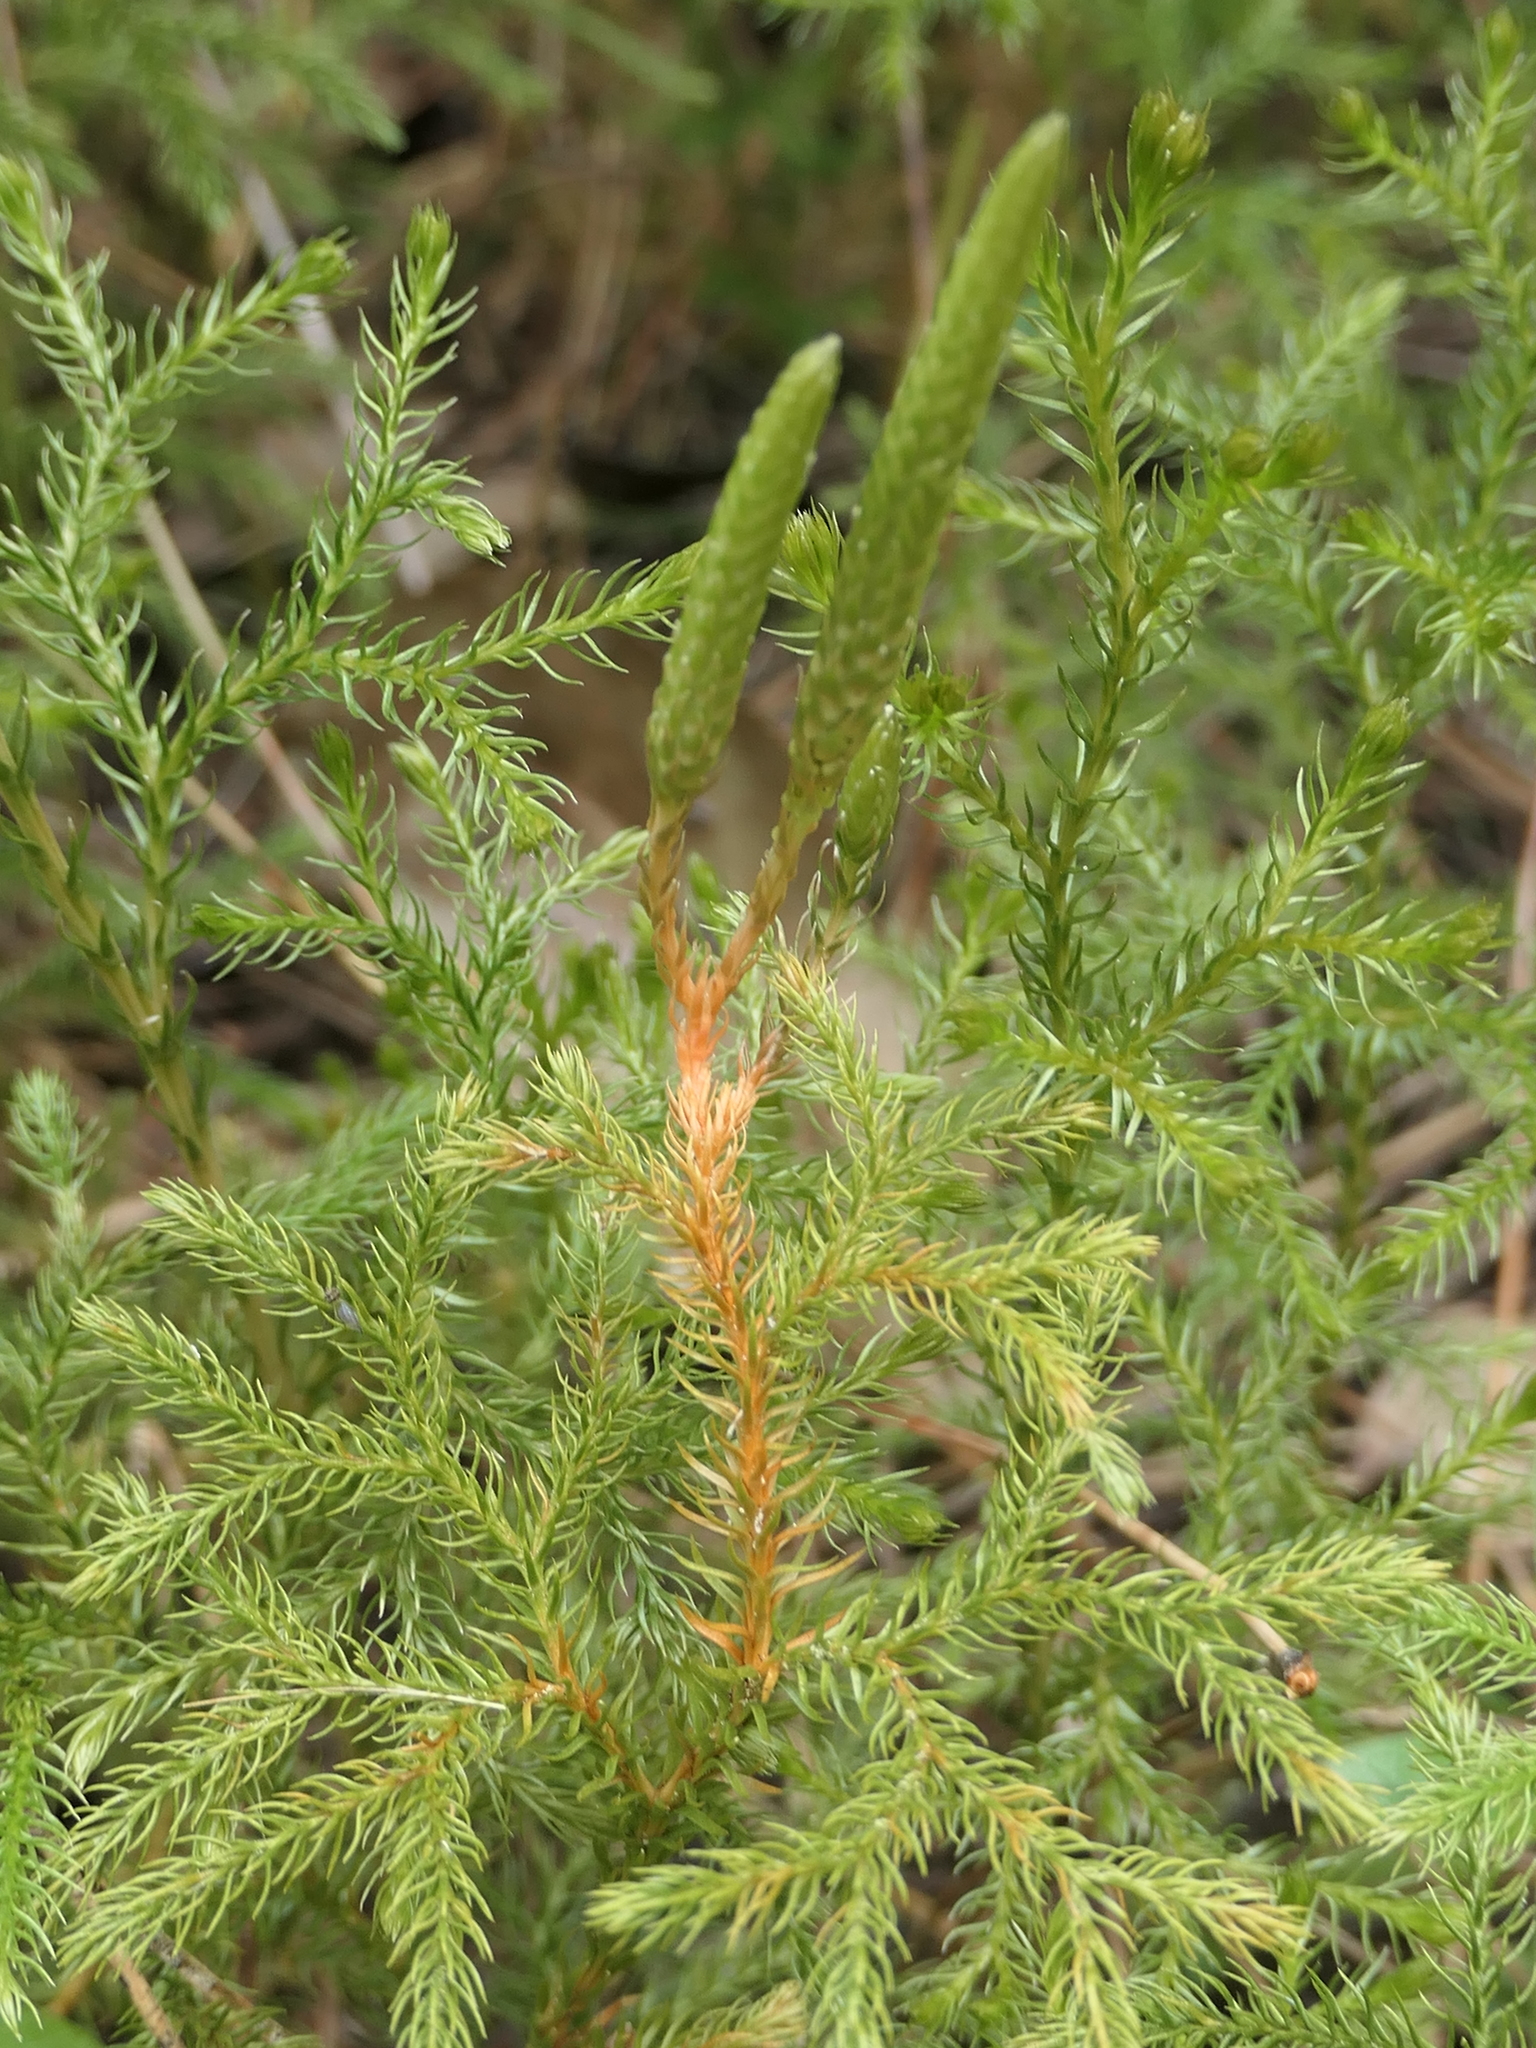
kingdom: Plantae
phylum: Tracheophyta
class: Lycopodiopsida
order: Lycopodiales
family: Lycopodiaceae
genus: Austrolycopodium
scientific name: Austrolycopodium fastigiatum
